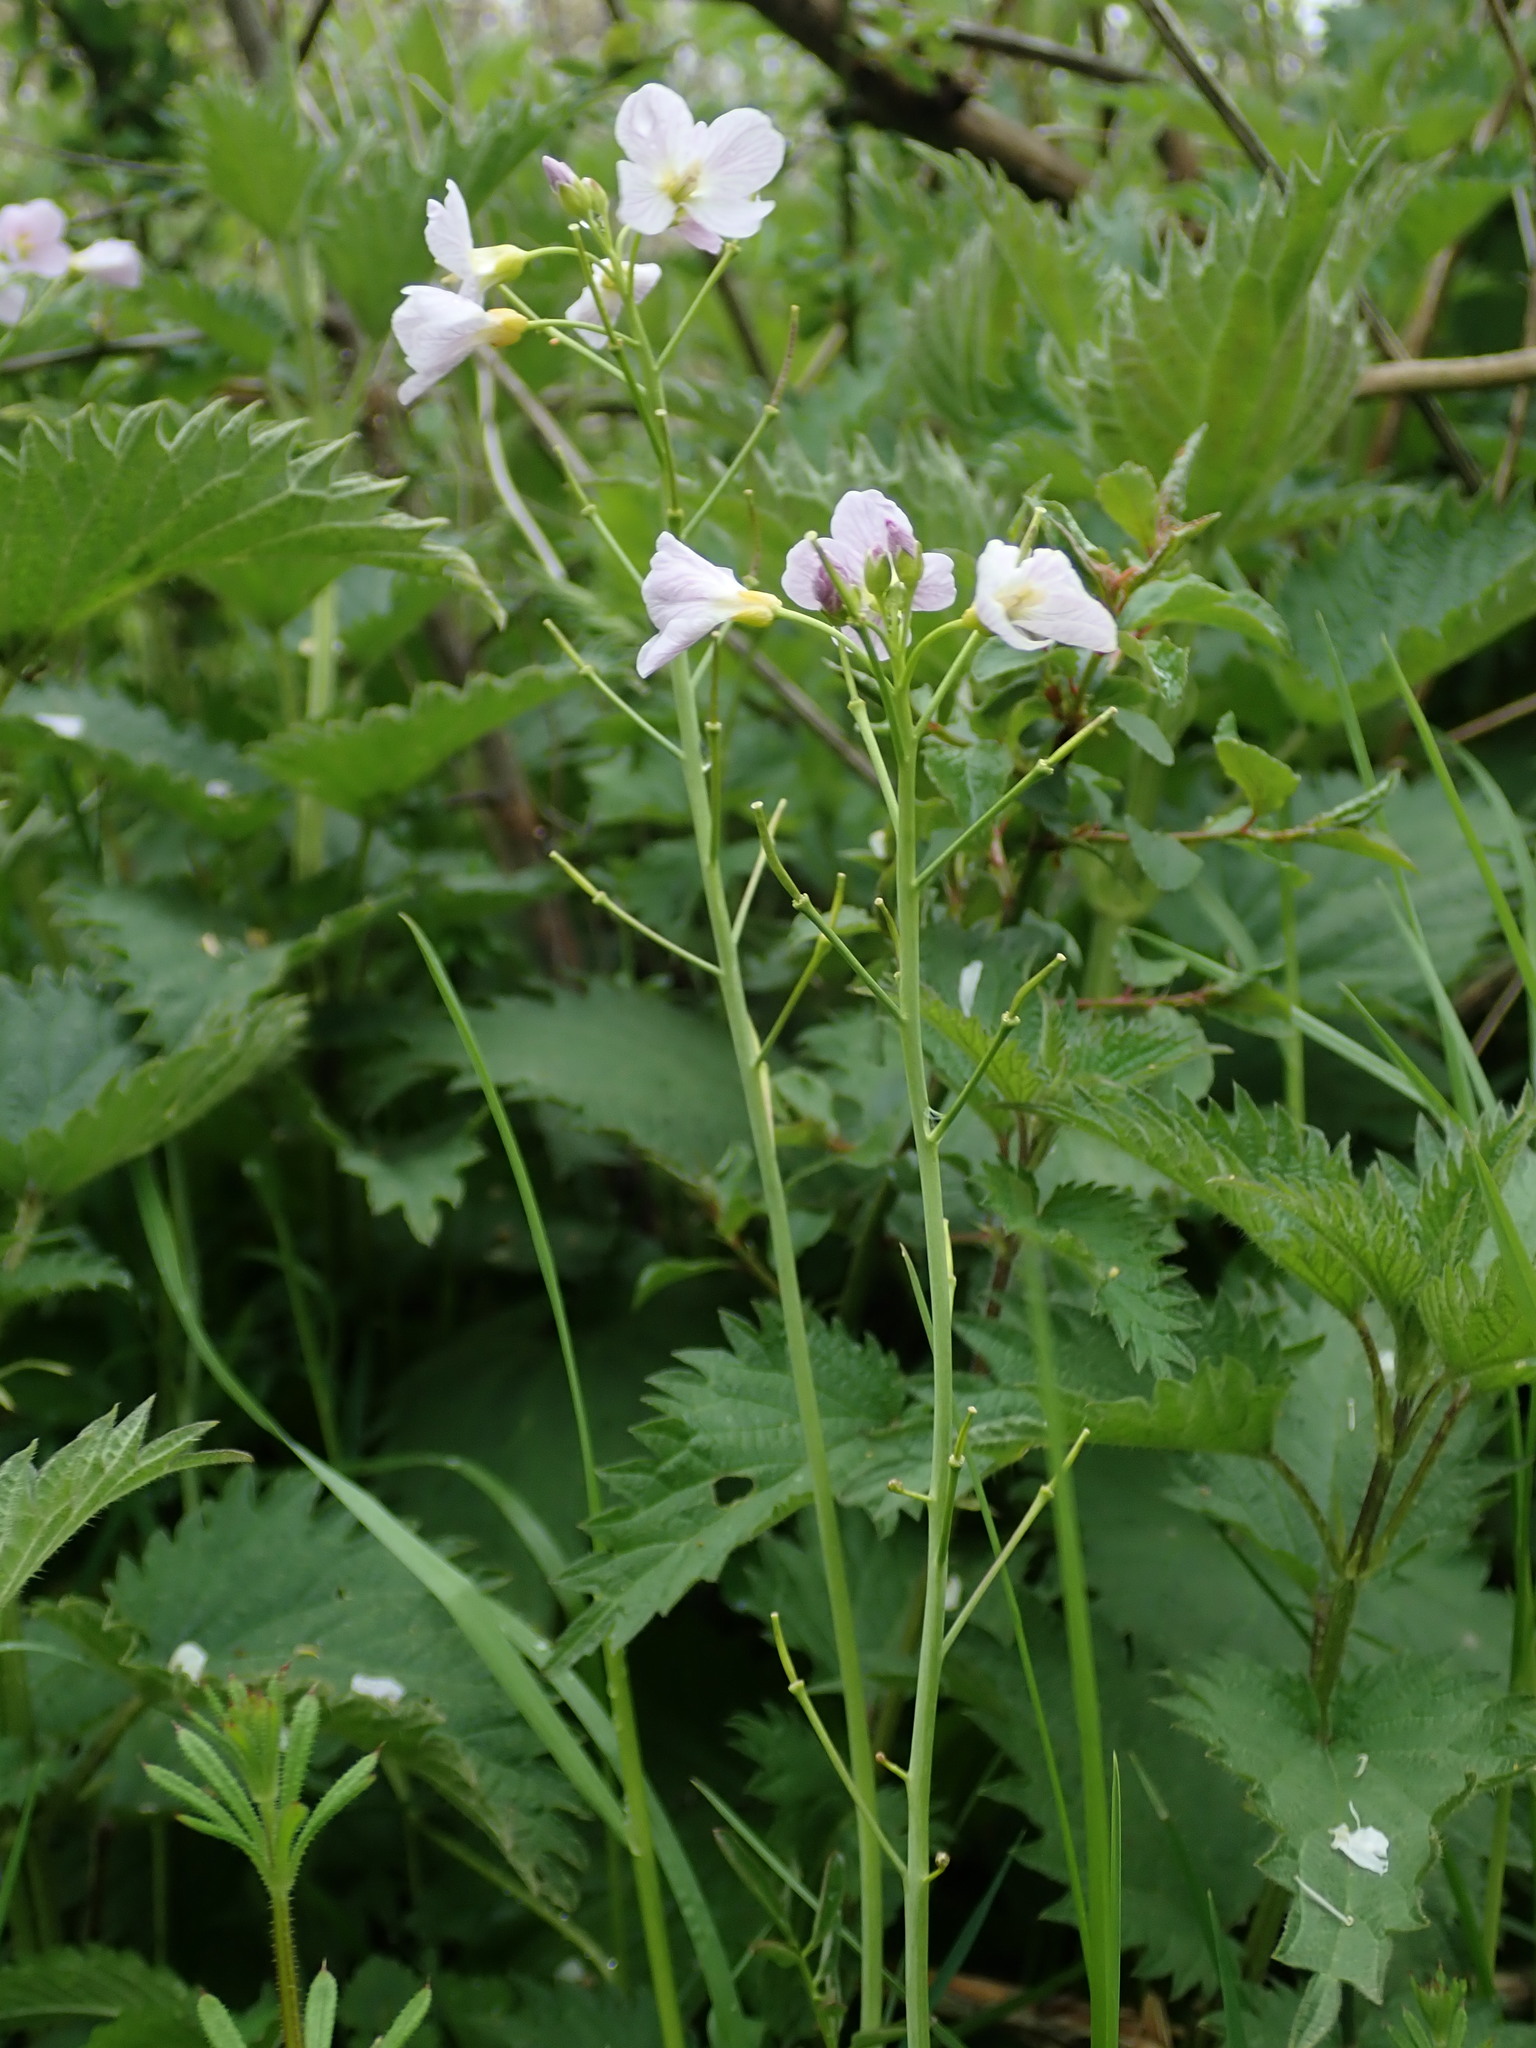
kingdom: Plantae
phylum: Tracheophyta
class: Magnoliopsida
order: Brassicales
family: Brassicaceae
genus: Cardamine
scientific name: Cardamine pratensis
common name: Cuckoo flower
